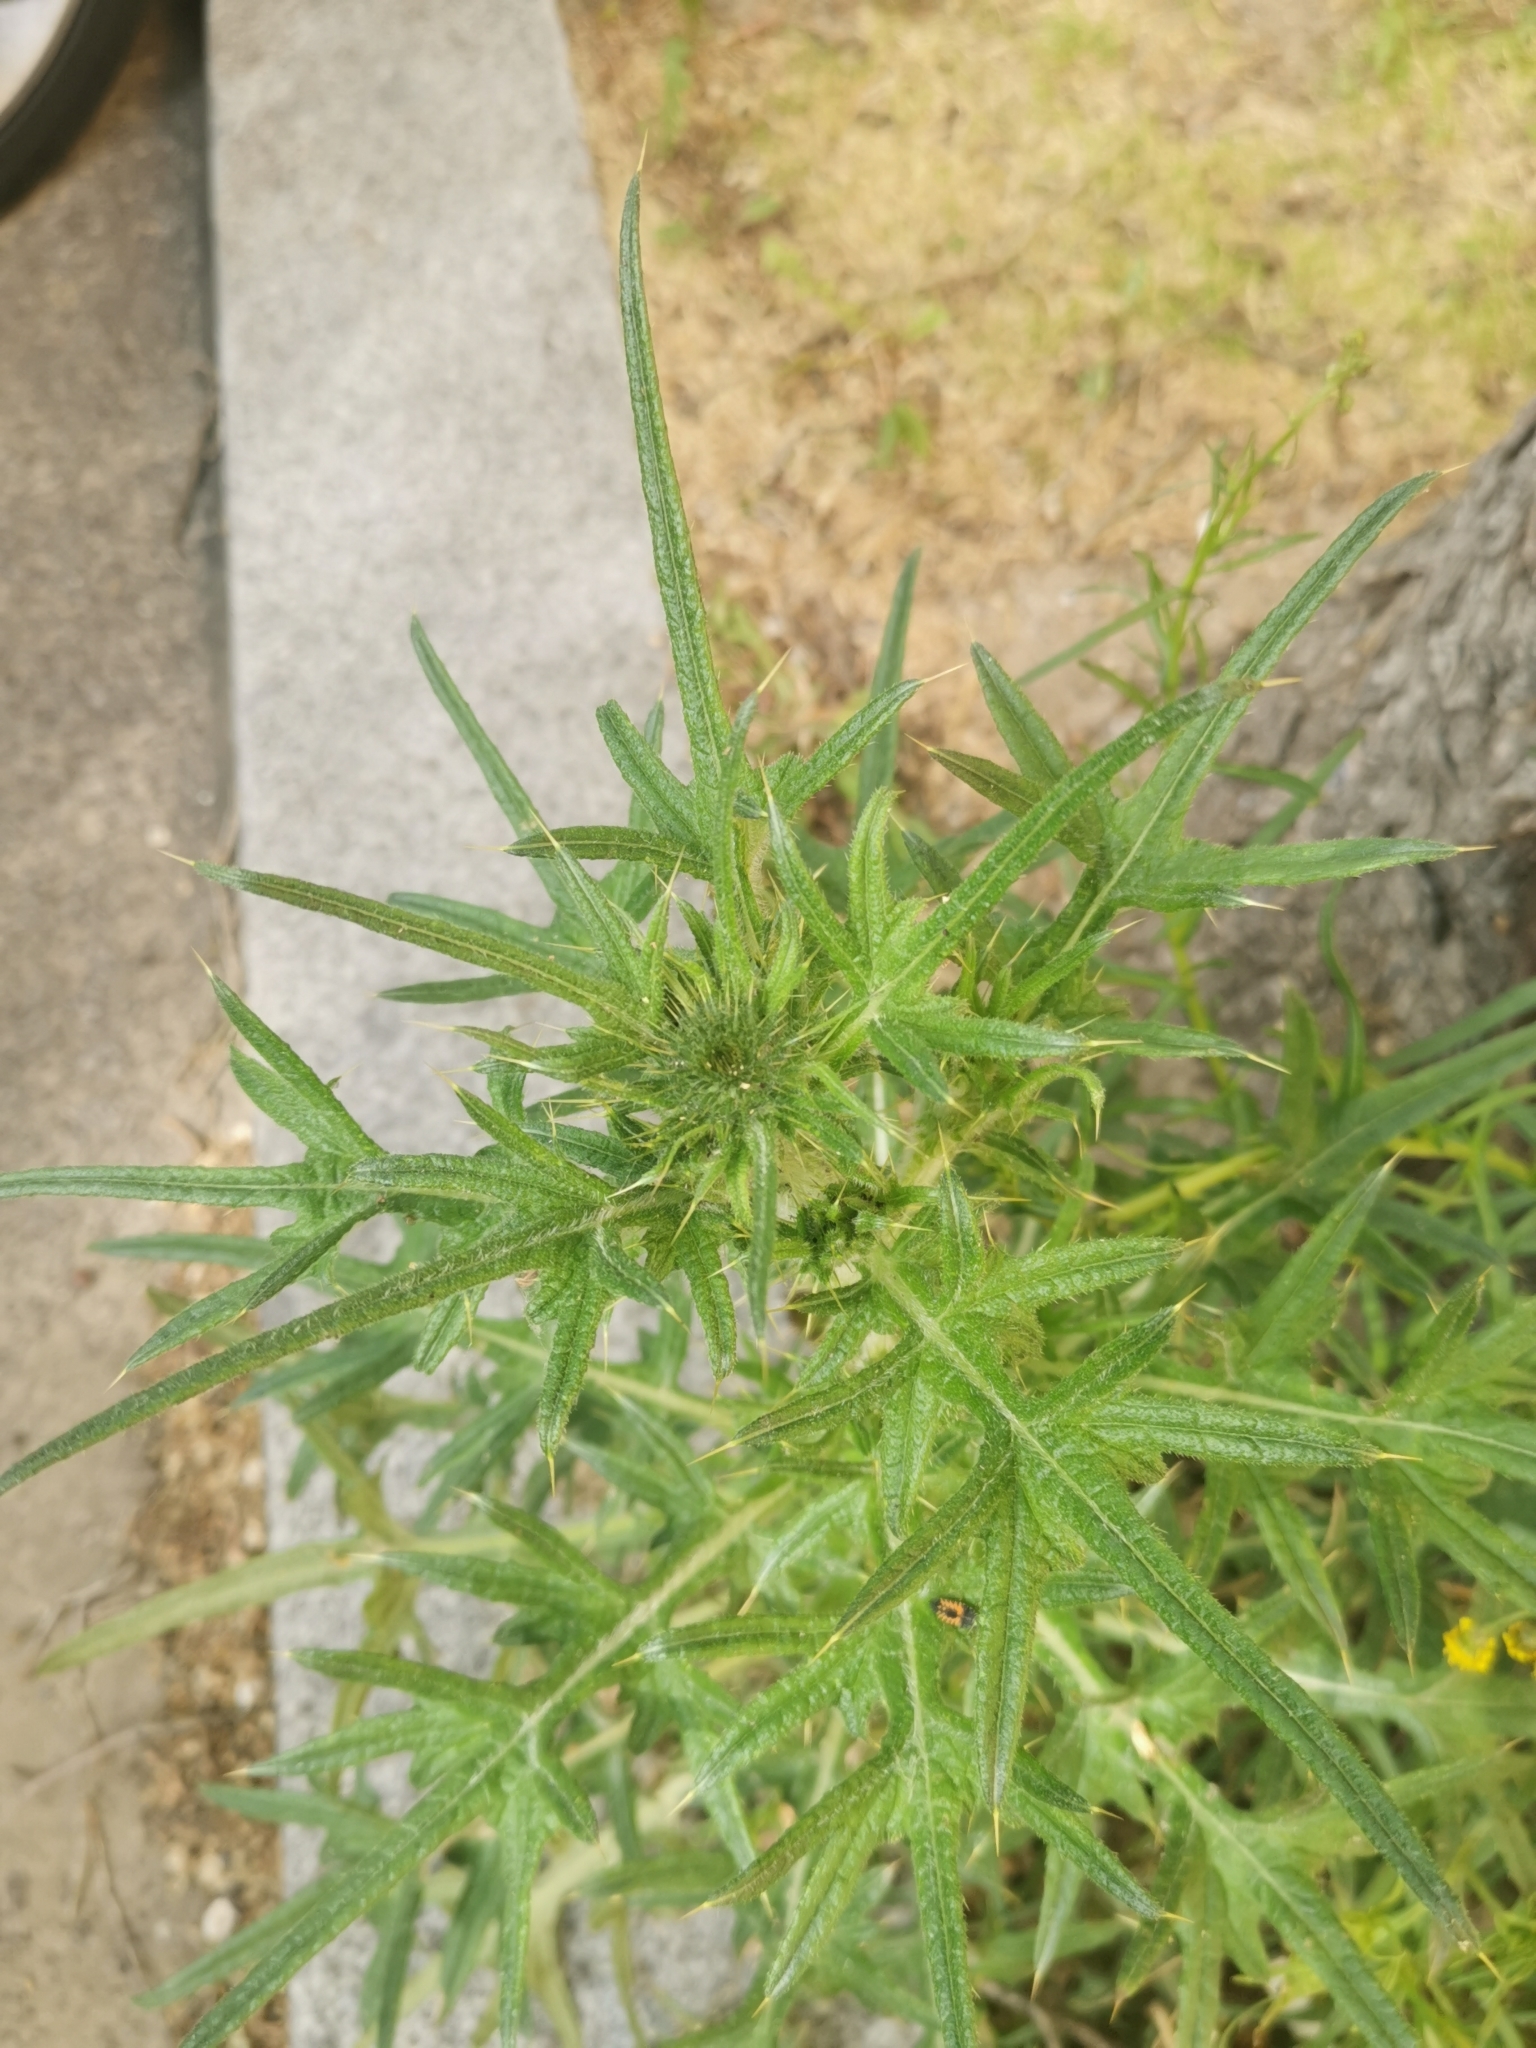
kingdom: Plantae
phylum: Tracheophyta
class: Magnoliopsida
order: Asterales
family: Asteraceae
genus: Cirsium
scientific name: Cirsium vulgare
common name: Bull thistle
